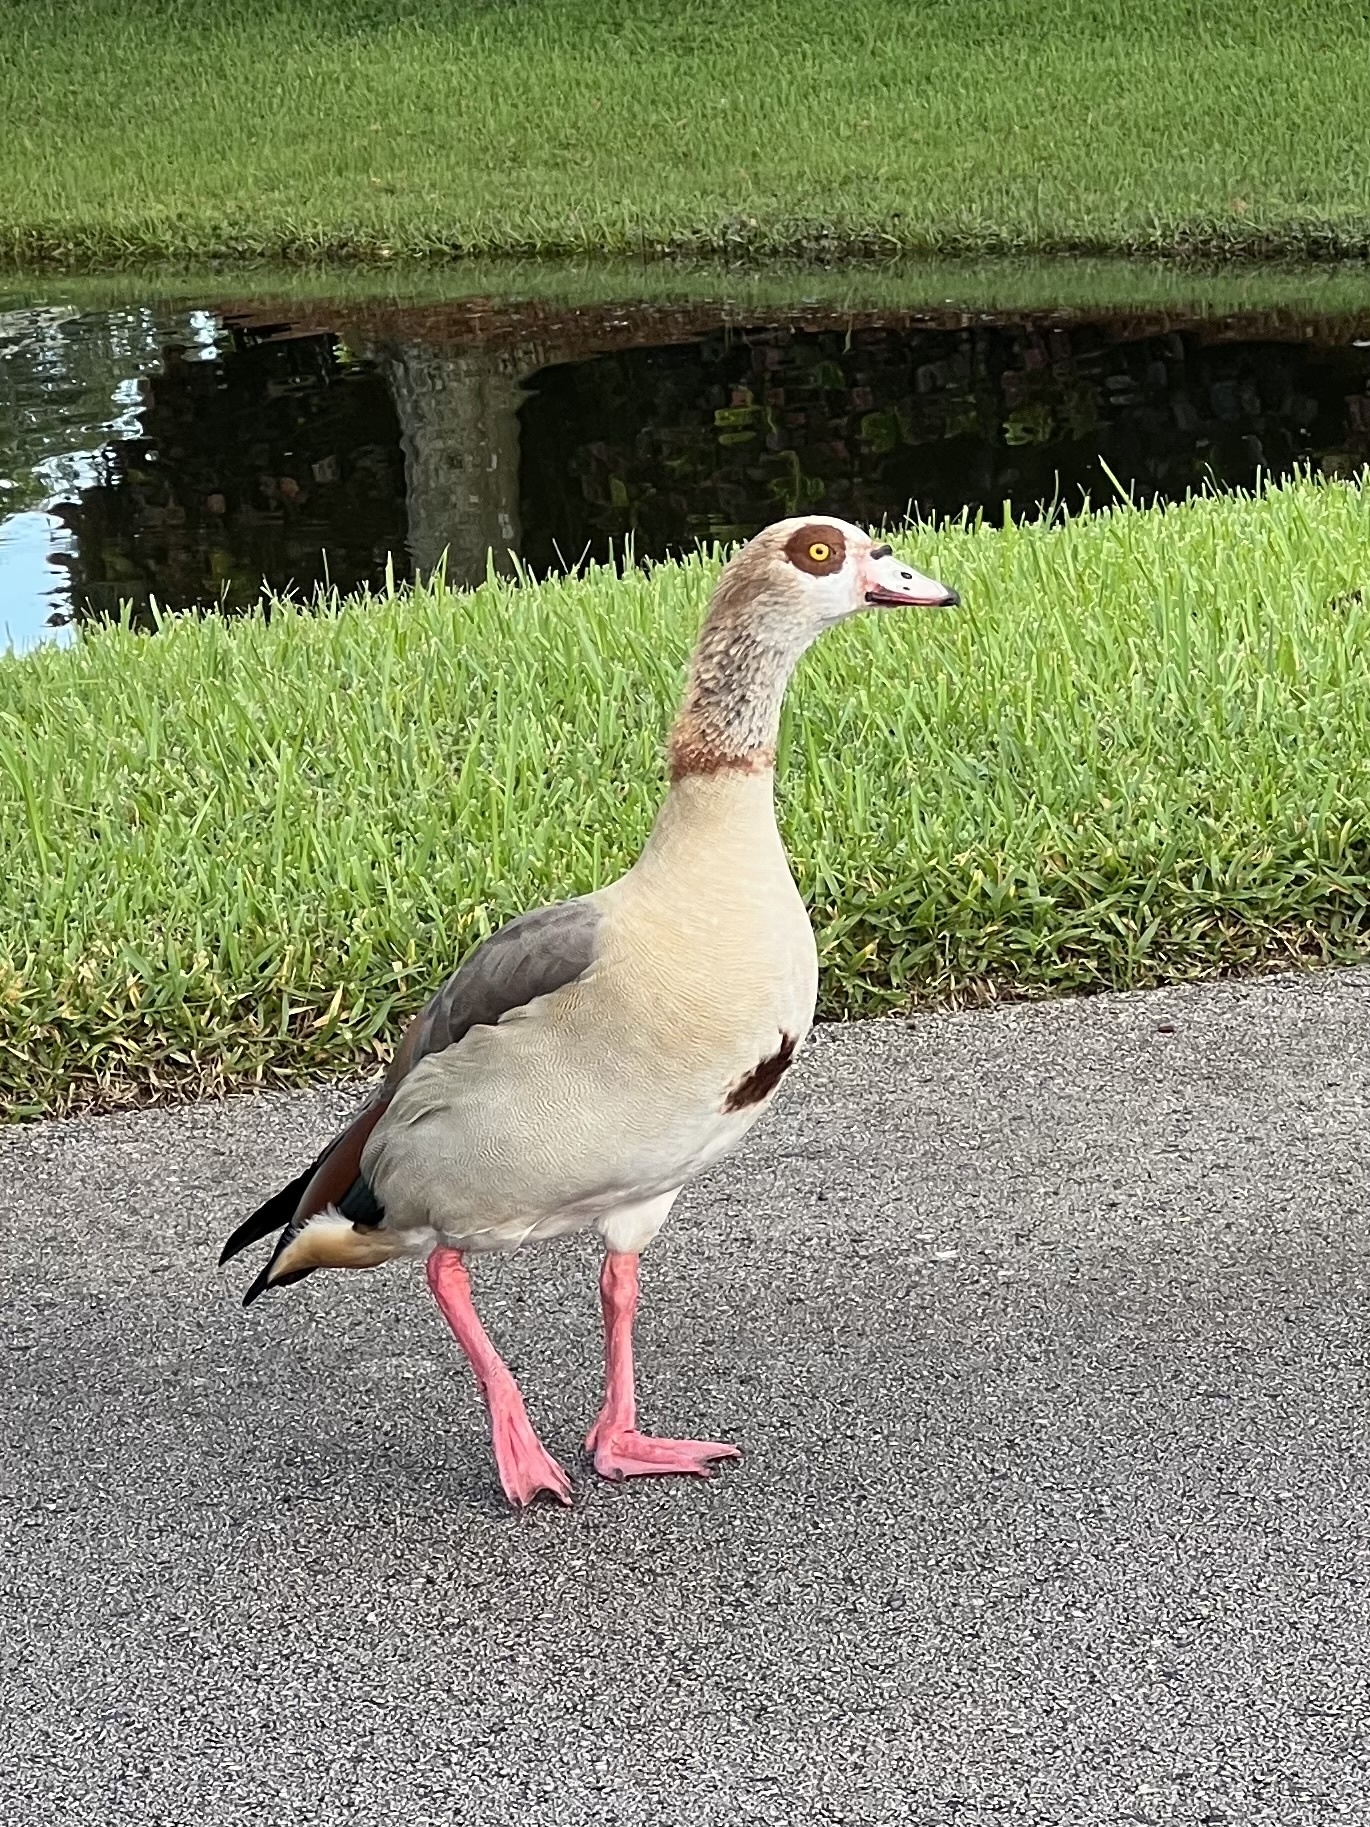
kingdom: Animalia
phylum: Chordata
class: Aves
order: Anseriformes
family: Anatidae
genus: Alopochen
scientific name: Alopochen aegyptiaca
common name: Egyptian goose
